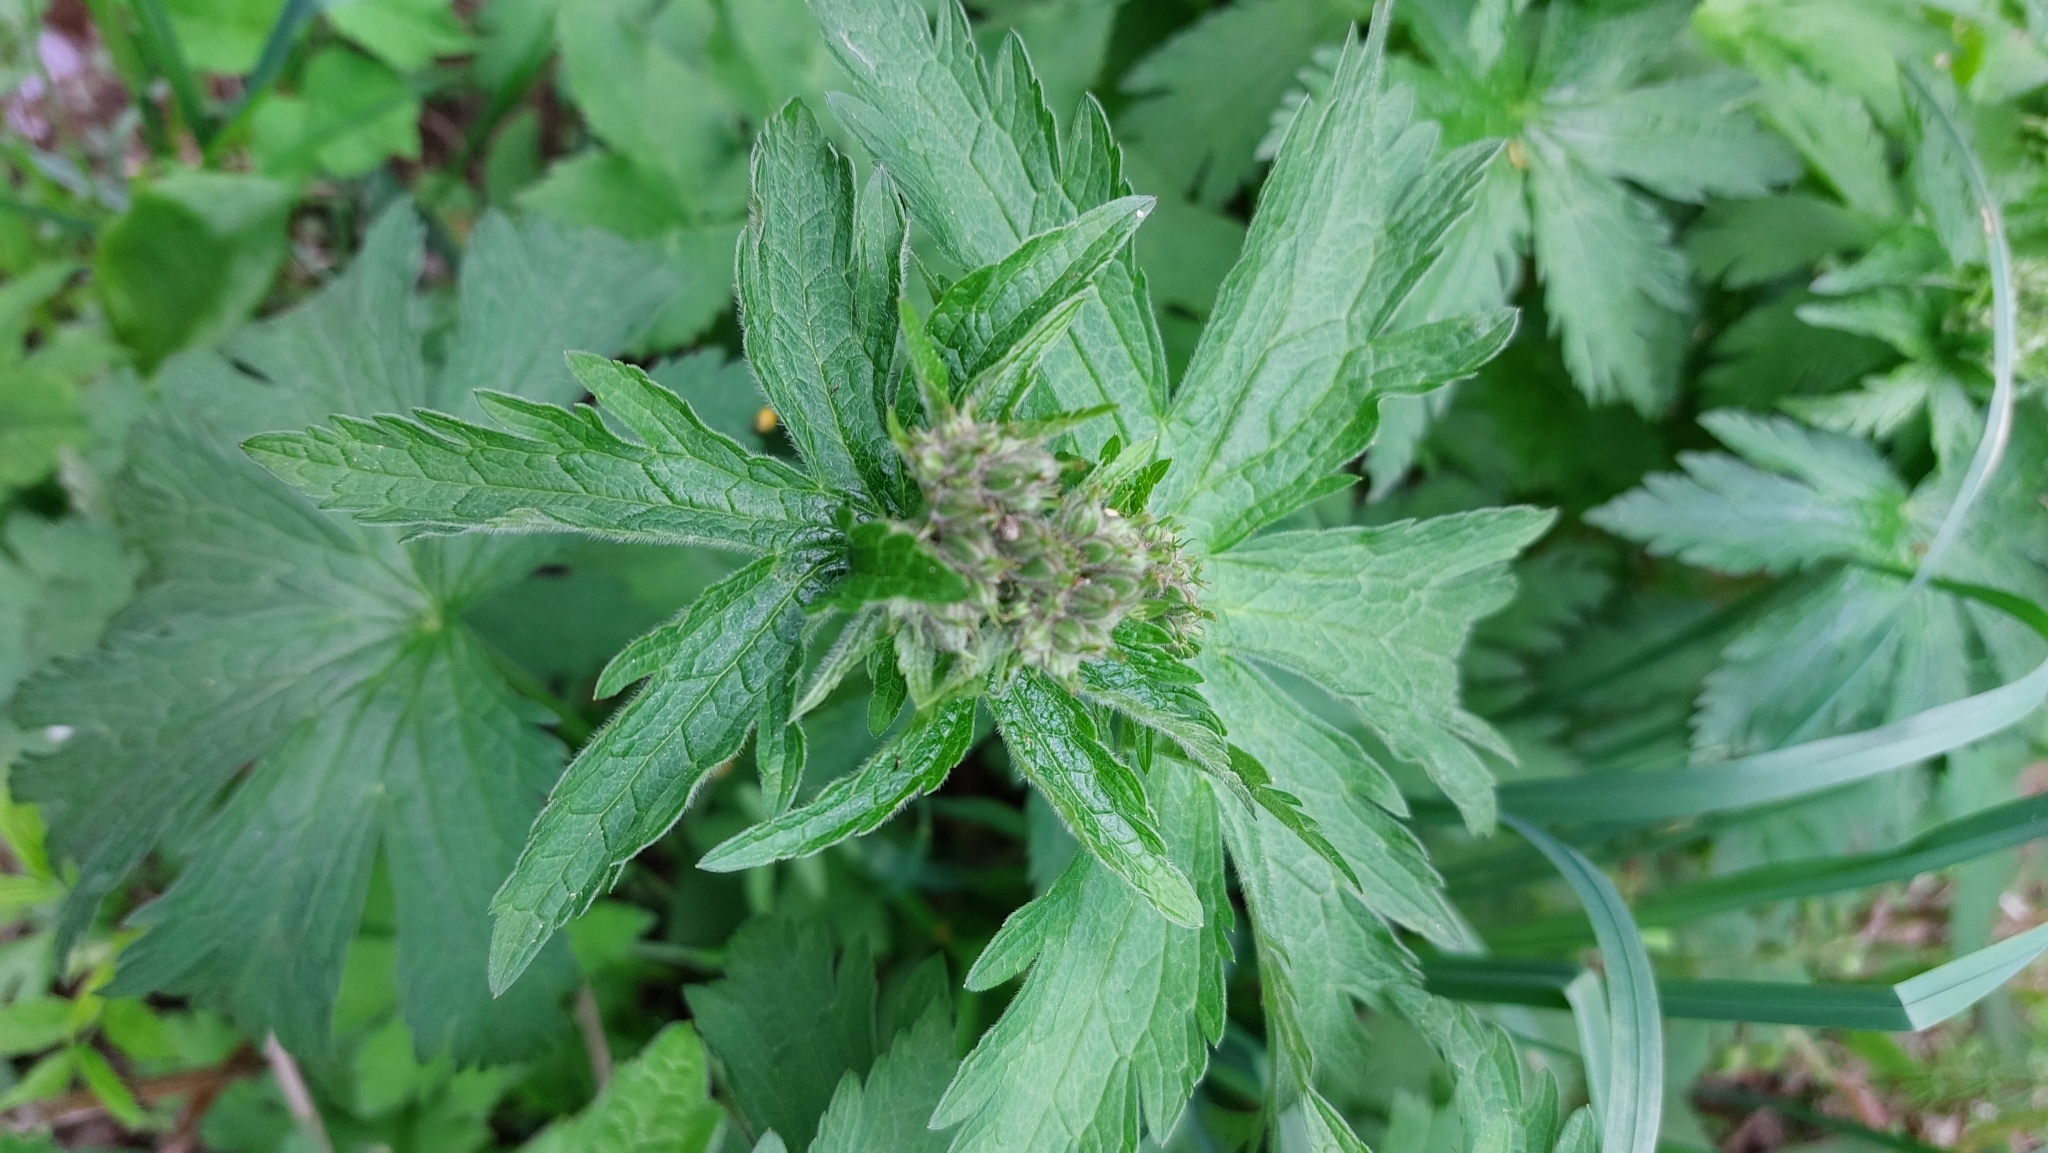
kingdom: Plantae
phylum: Tracheophyta
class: Magnoliopsida
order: Geraniales
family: Geraniaceae
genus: Geranium
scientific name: Geranium sylvaticum
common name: Wood crane's-bill
